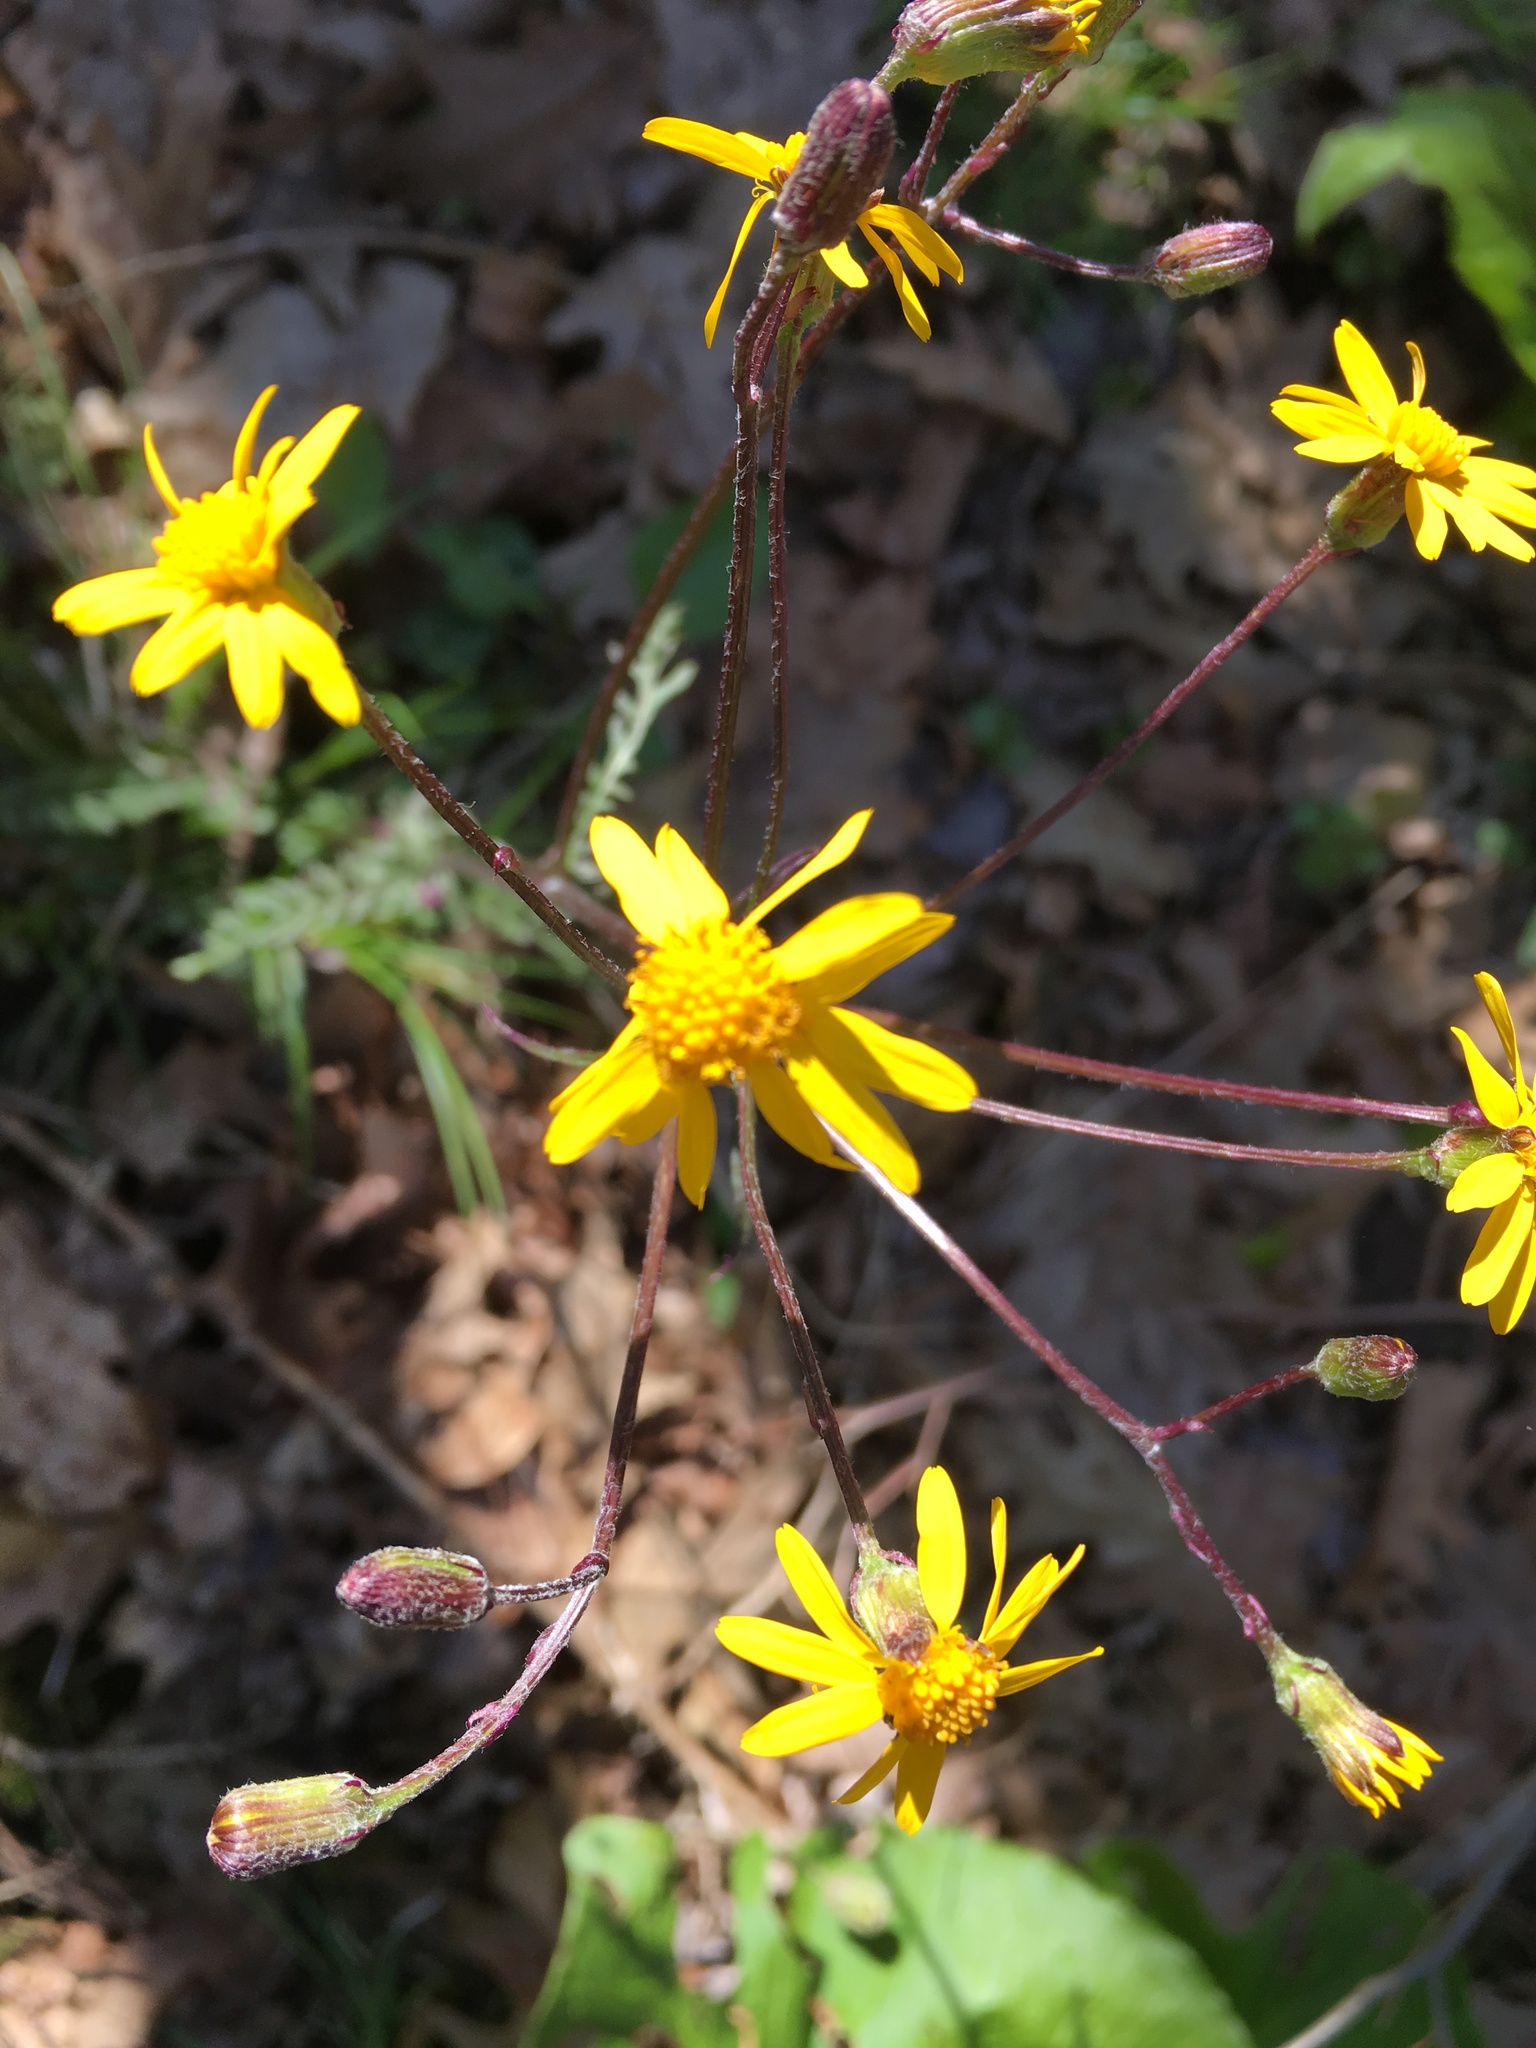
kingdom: Plantae
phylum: Tracheophyta
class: Magnoliopsida
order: Asterales
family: Asteraceae
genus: Packera
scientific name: Packera aurea
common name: Golden groundsel
